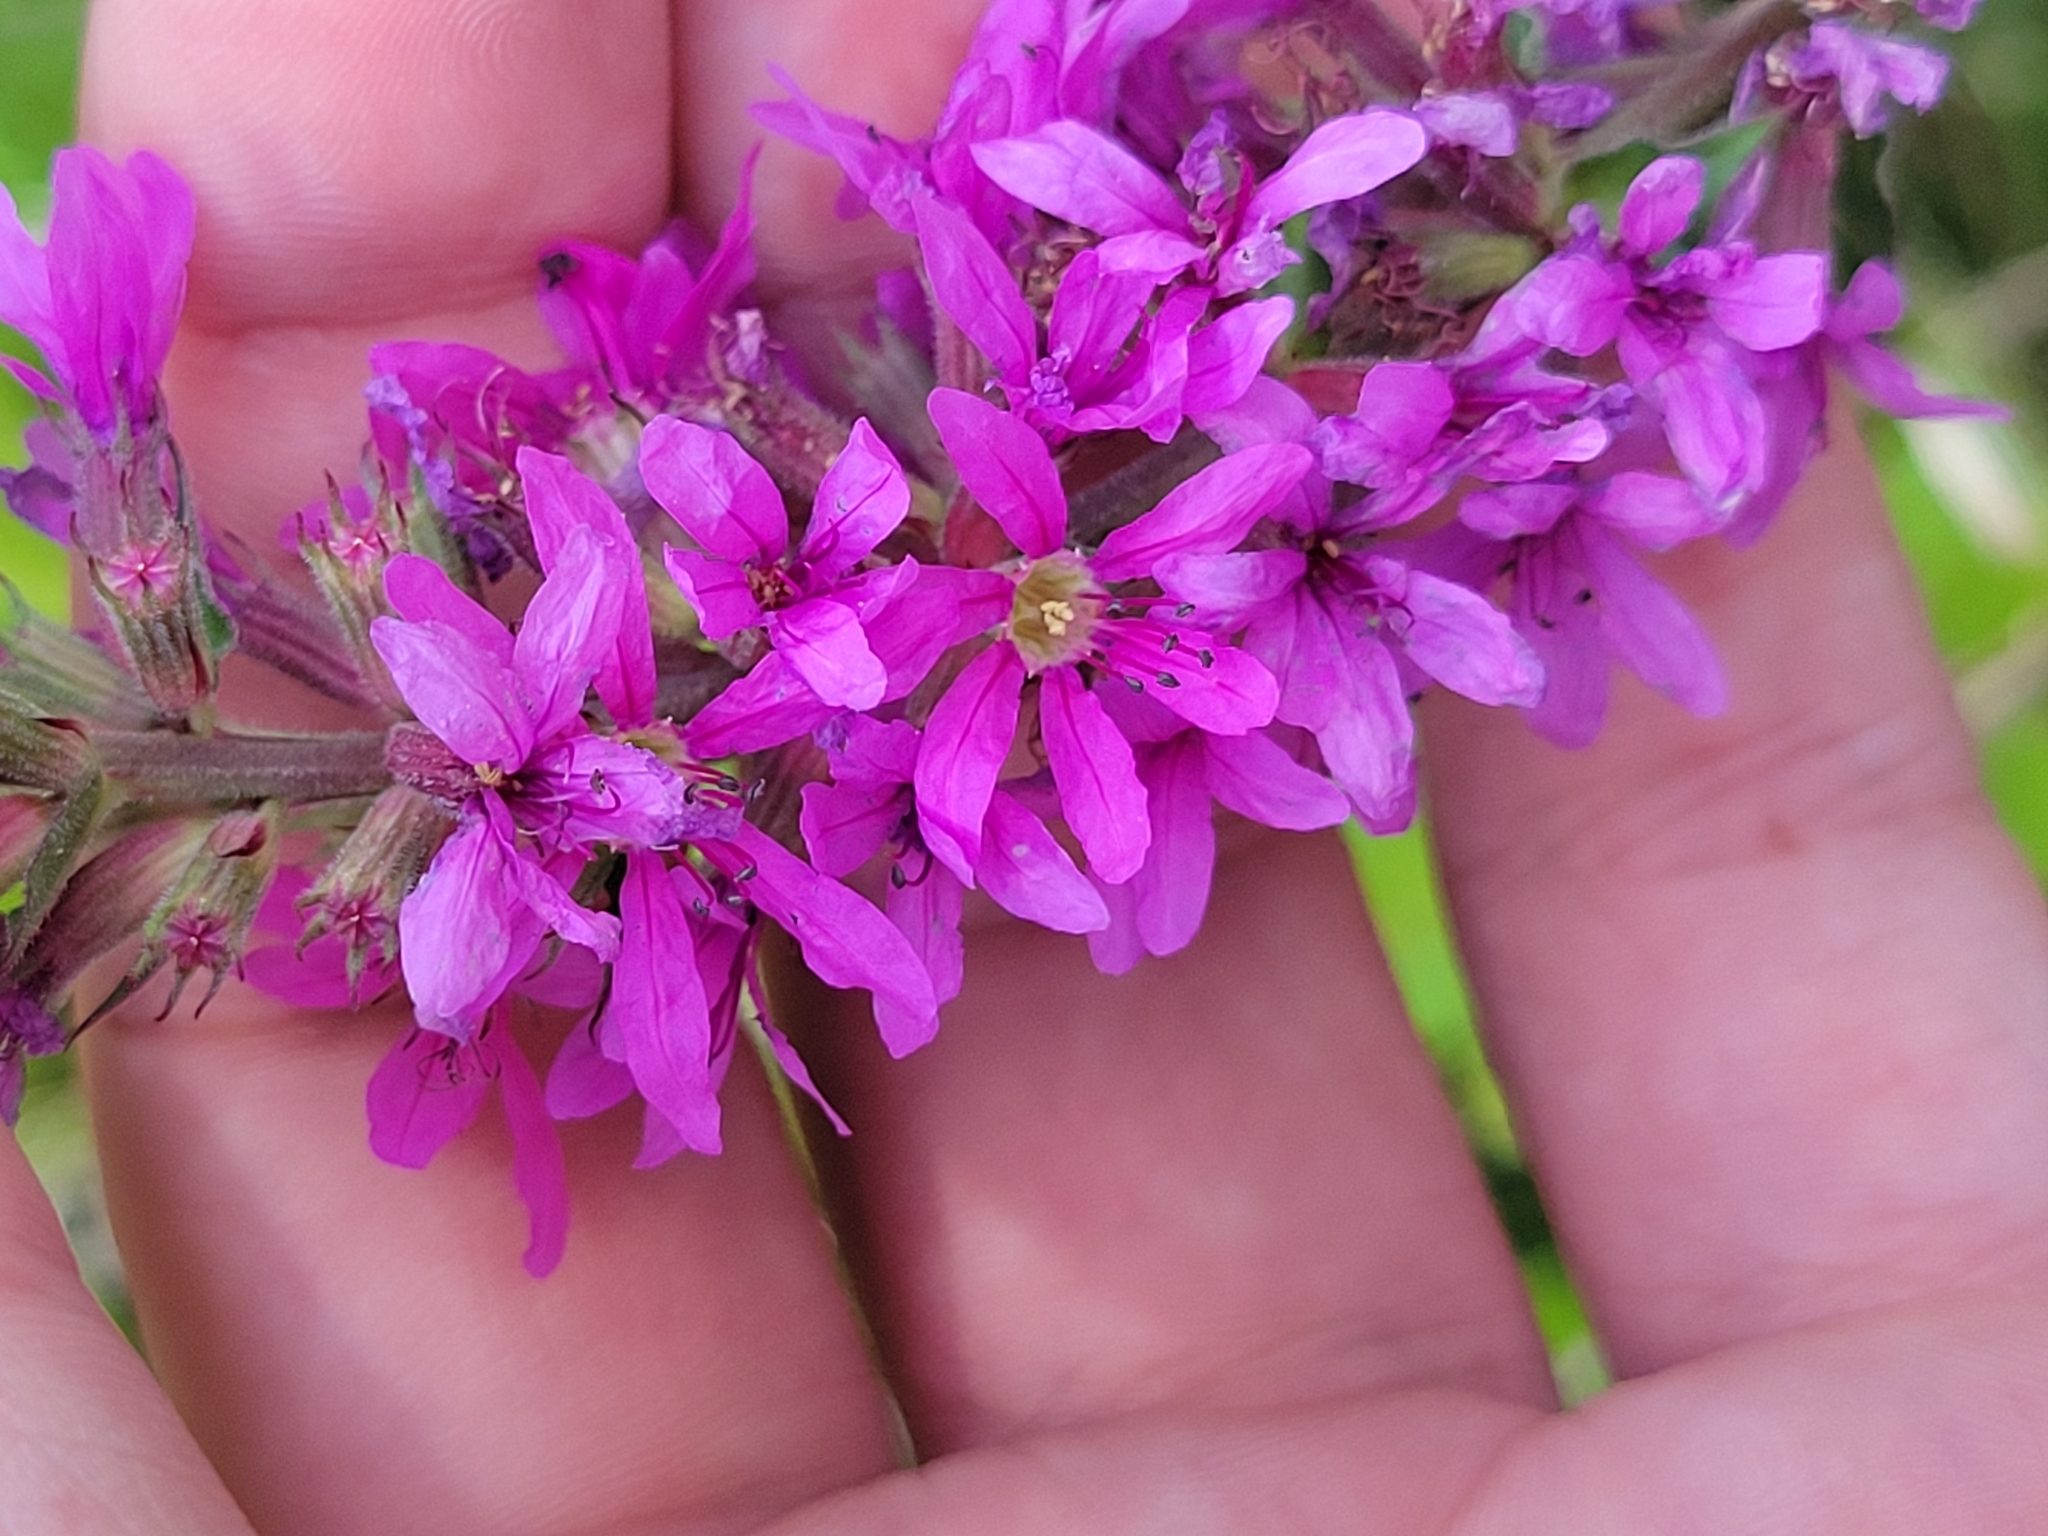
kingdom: Plantae
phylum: Tracheophyta
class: Magnoliopsida
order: Myrtales
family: Lythraceae
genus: Lythrum
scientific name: Lythrum salicaria
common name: Purple loosestrife
